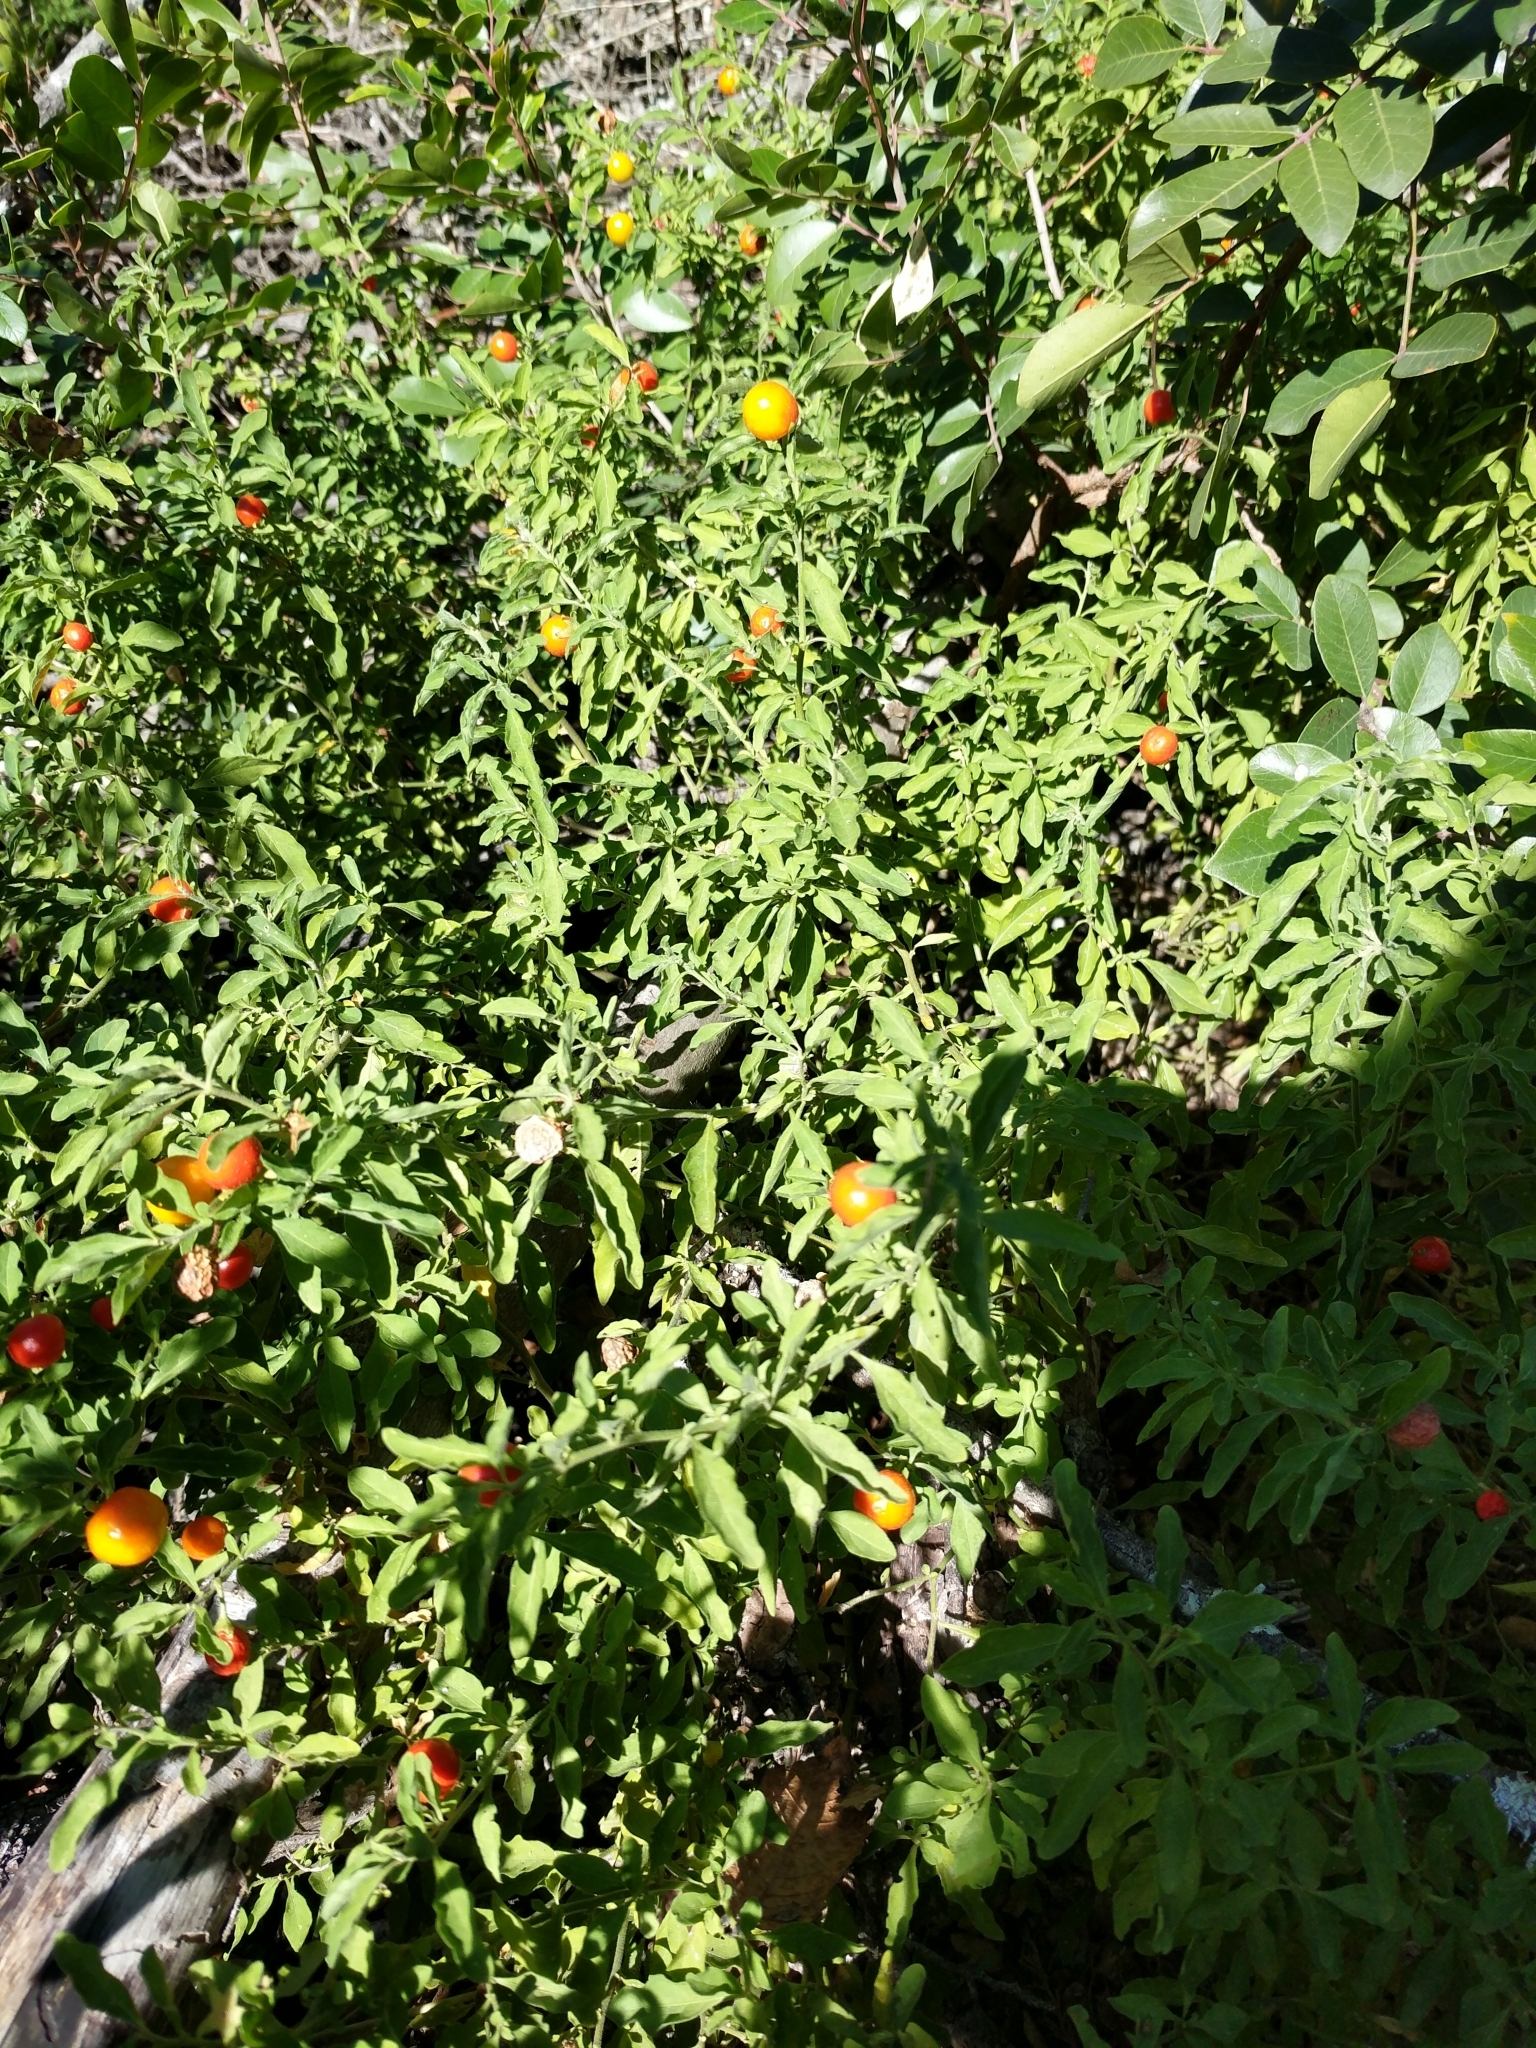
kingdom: Plantae
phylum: Tracheophyta
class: Magnoliopsida
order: Solanales
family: Solanaceae
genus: Solanum
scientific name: Solanum pseudocapsicum
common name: Jerusalem cherry
